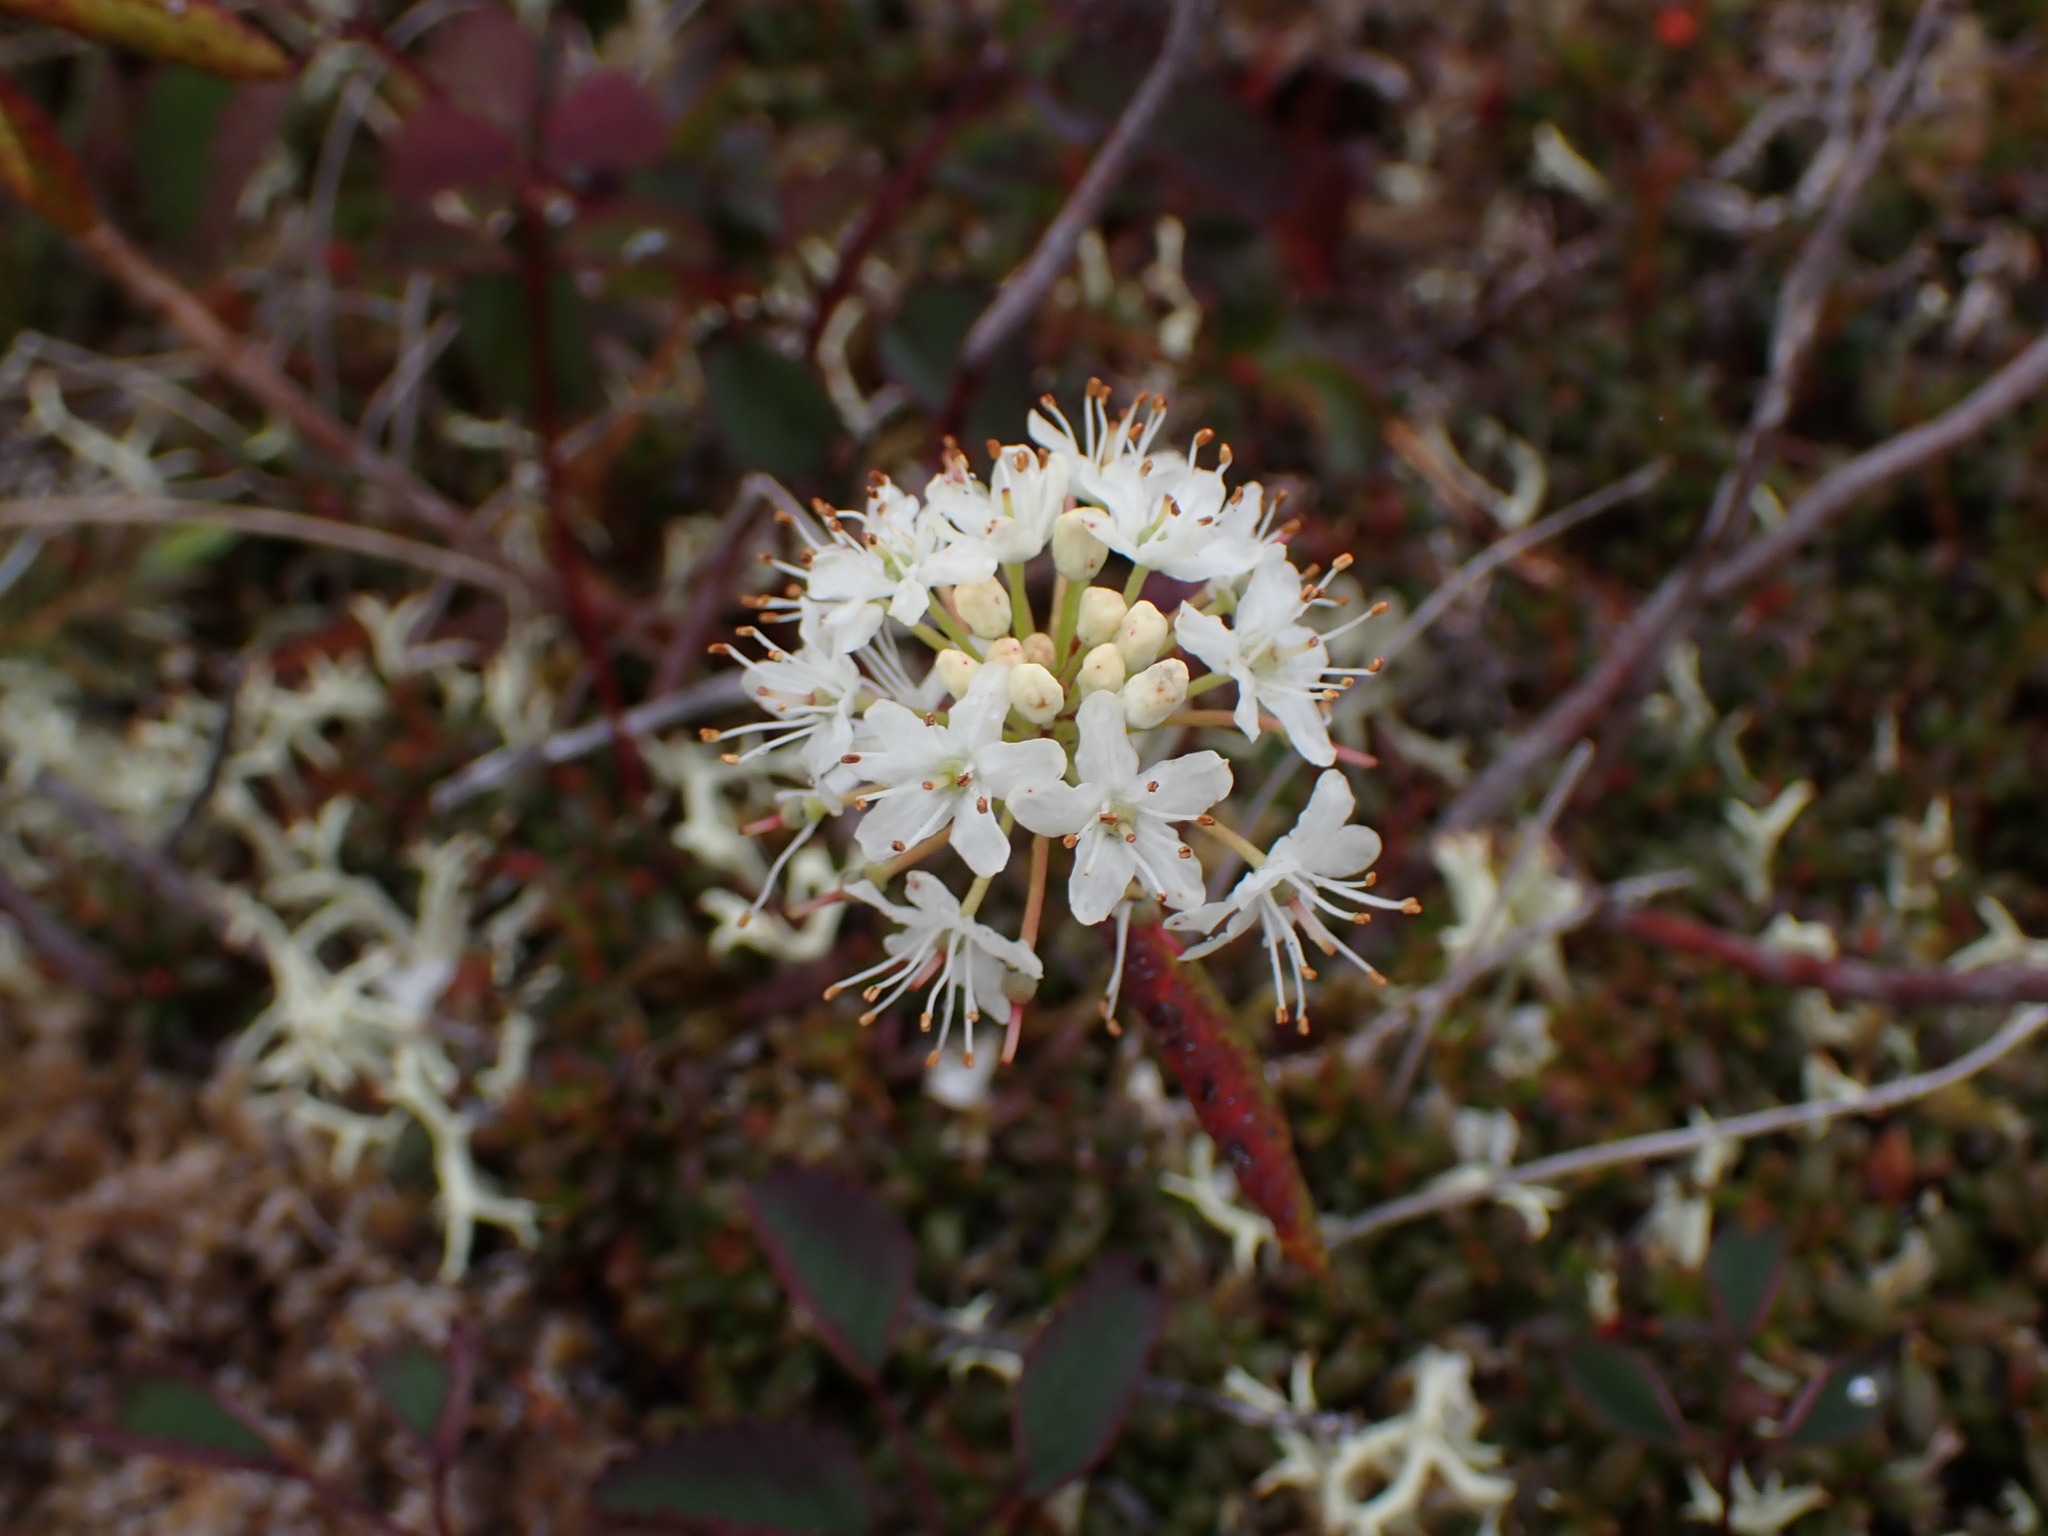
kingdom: Plantae
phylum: Tracheophyta
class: Magnoliopsida
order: Ericales
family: Ericaceae
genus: Rhododendron
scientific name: Rhododendron groenlandicum
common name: Bog labrador tea
